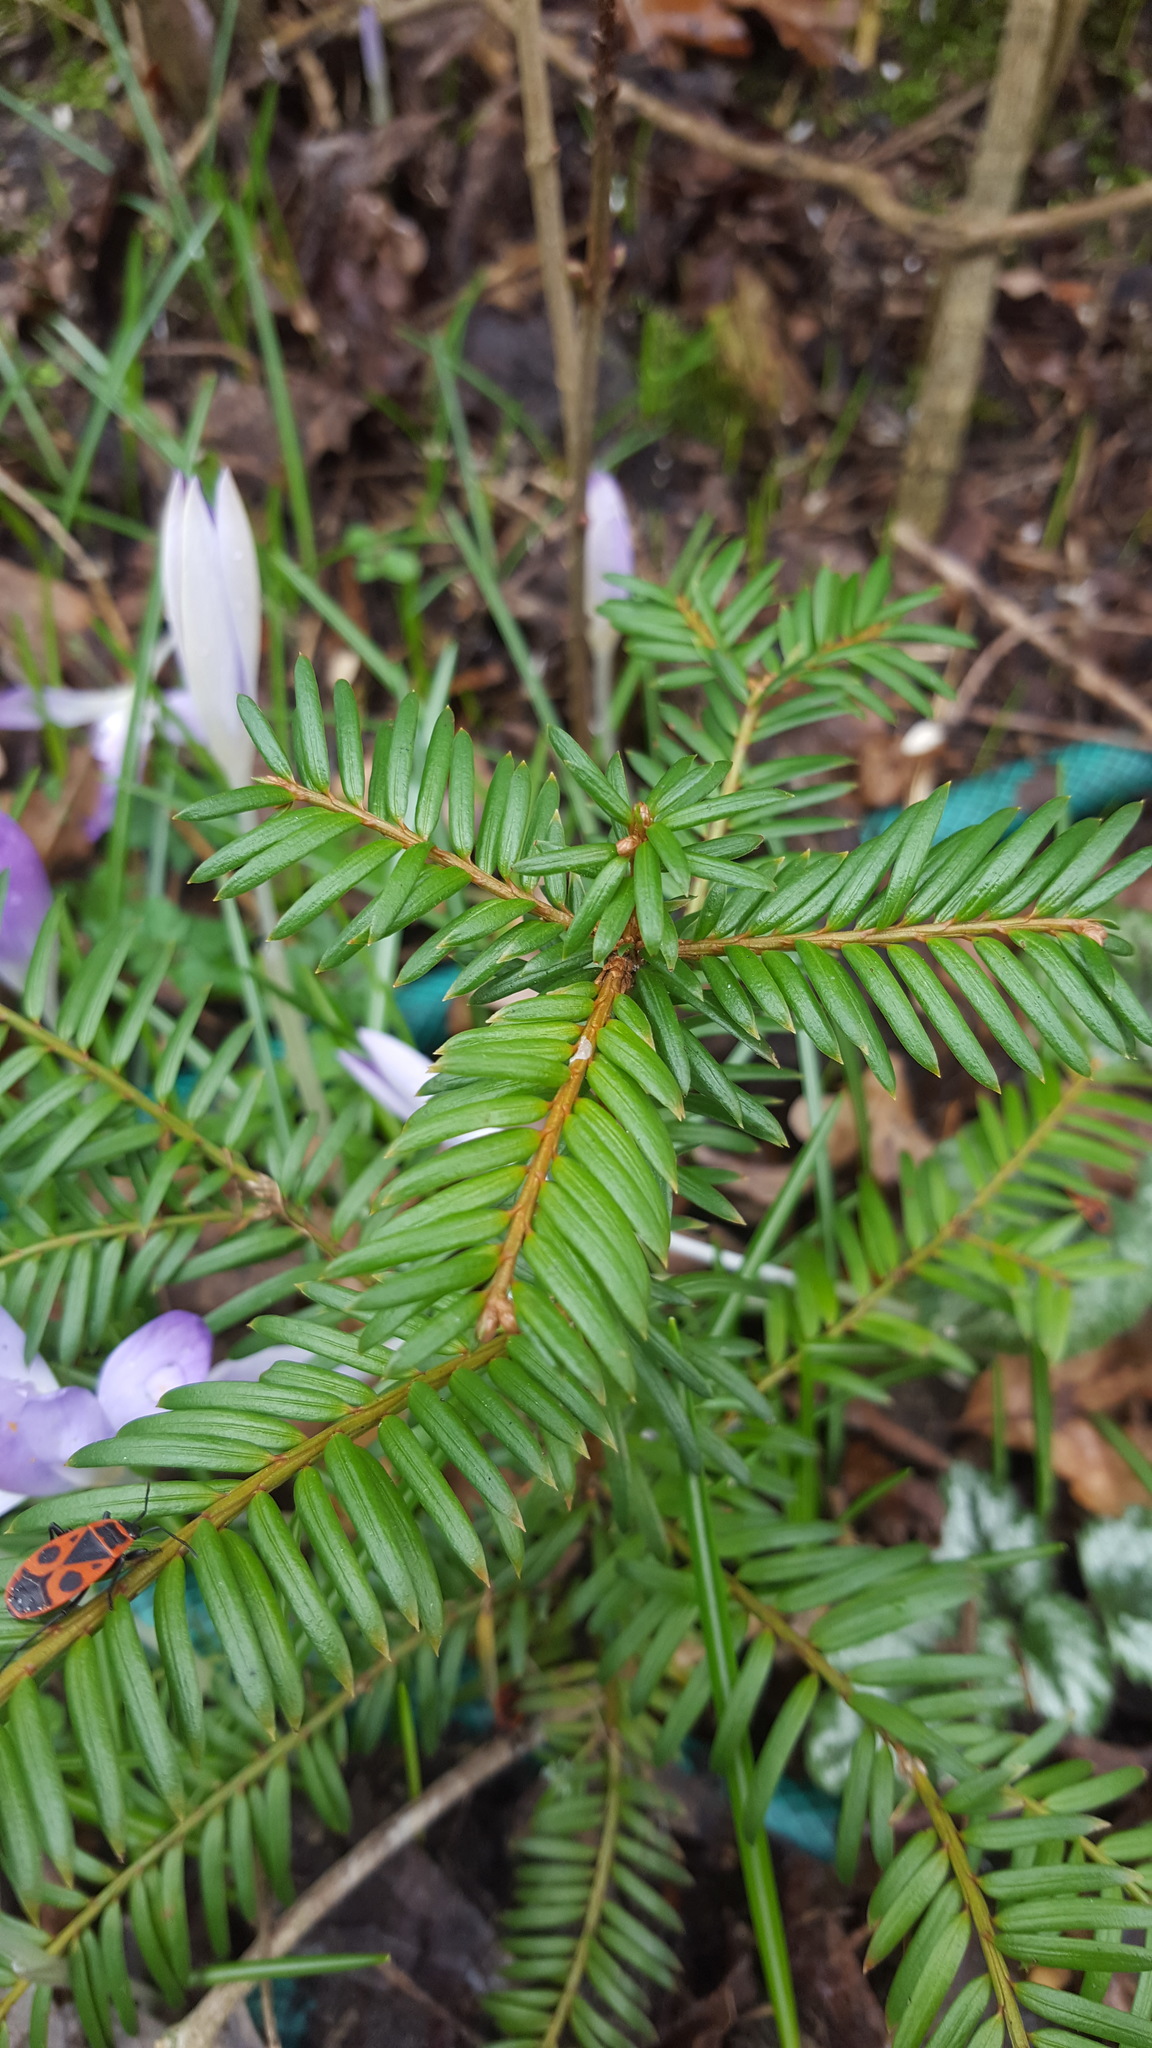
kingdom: Plantae
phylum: Tracheophyta
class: Pinopsida
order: Pinales
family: Taxaceae
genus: Taxus
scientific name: Taxus baccata
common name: Yew
